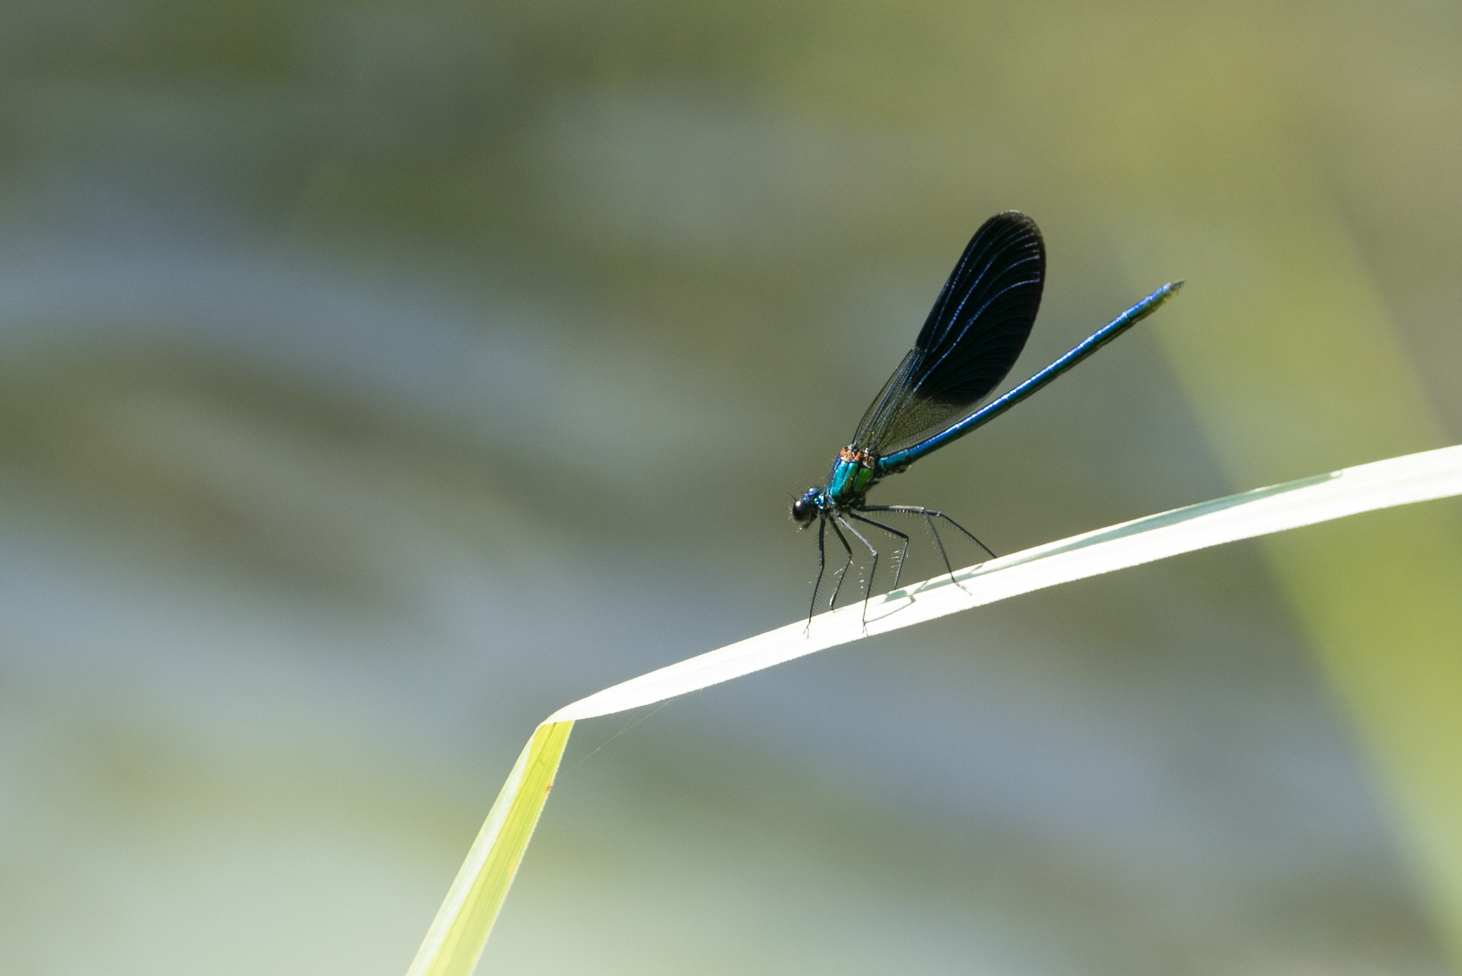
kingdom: Animalia
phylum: Arthropoda
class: Insecta
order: Odonata
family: Calopterygidae
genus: Calopteryx
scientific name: Calopteryx splendens
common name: Banded demoiselle
